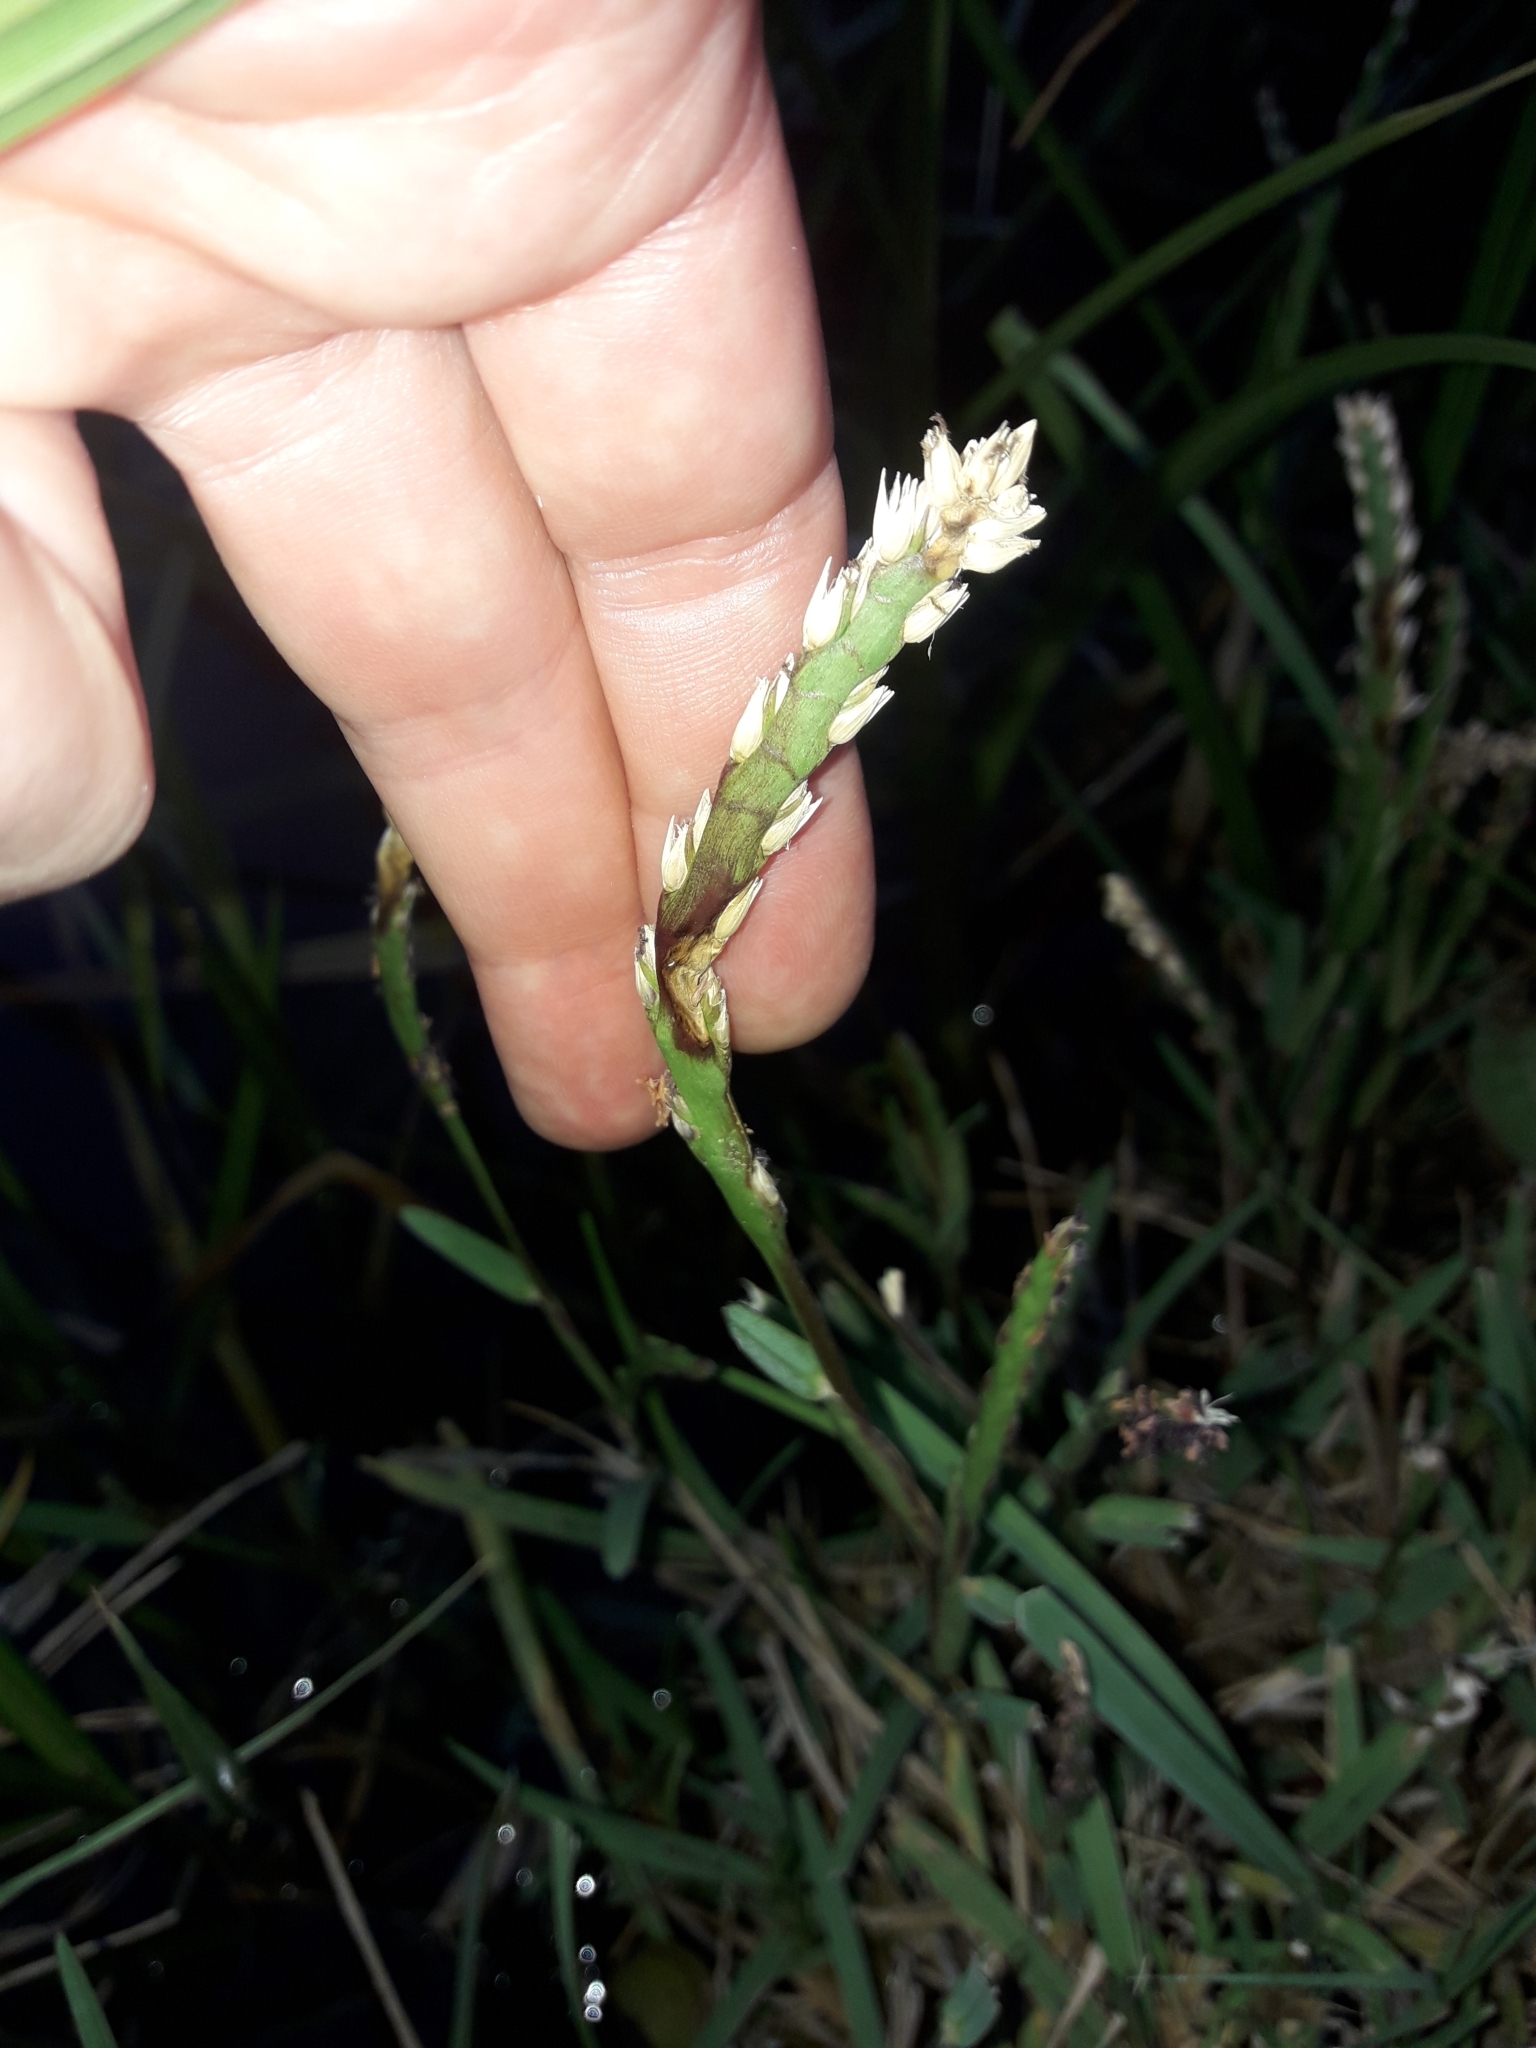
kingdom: Plantae
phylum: Tracheophyta
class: Liliopsida
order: Poales
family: Poaceae
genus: Stenotaphrum
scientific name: Stenotaphrum secundatum
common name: St. augustine grass
